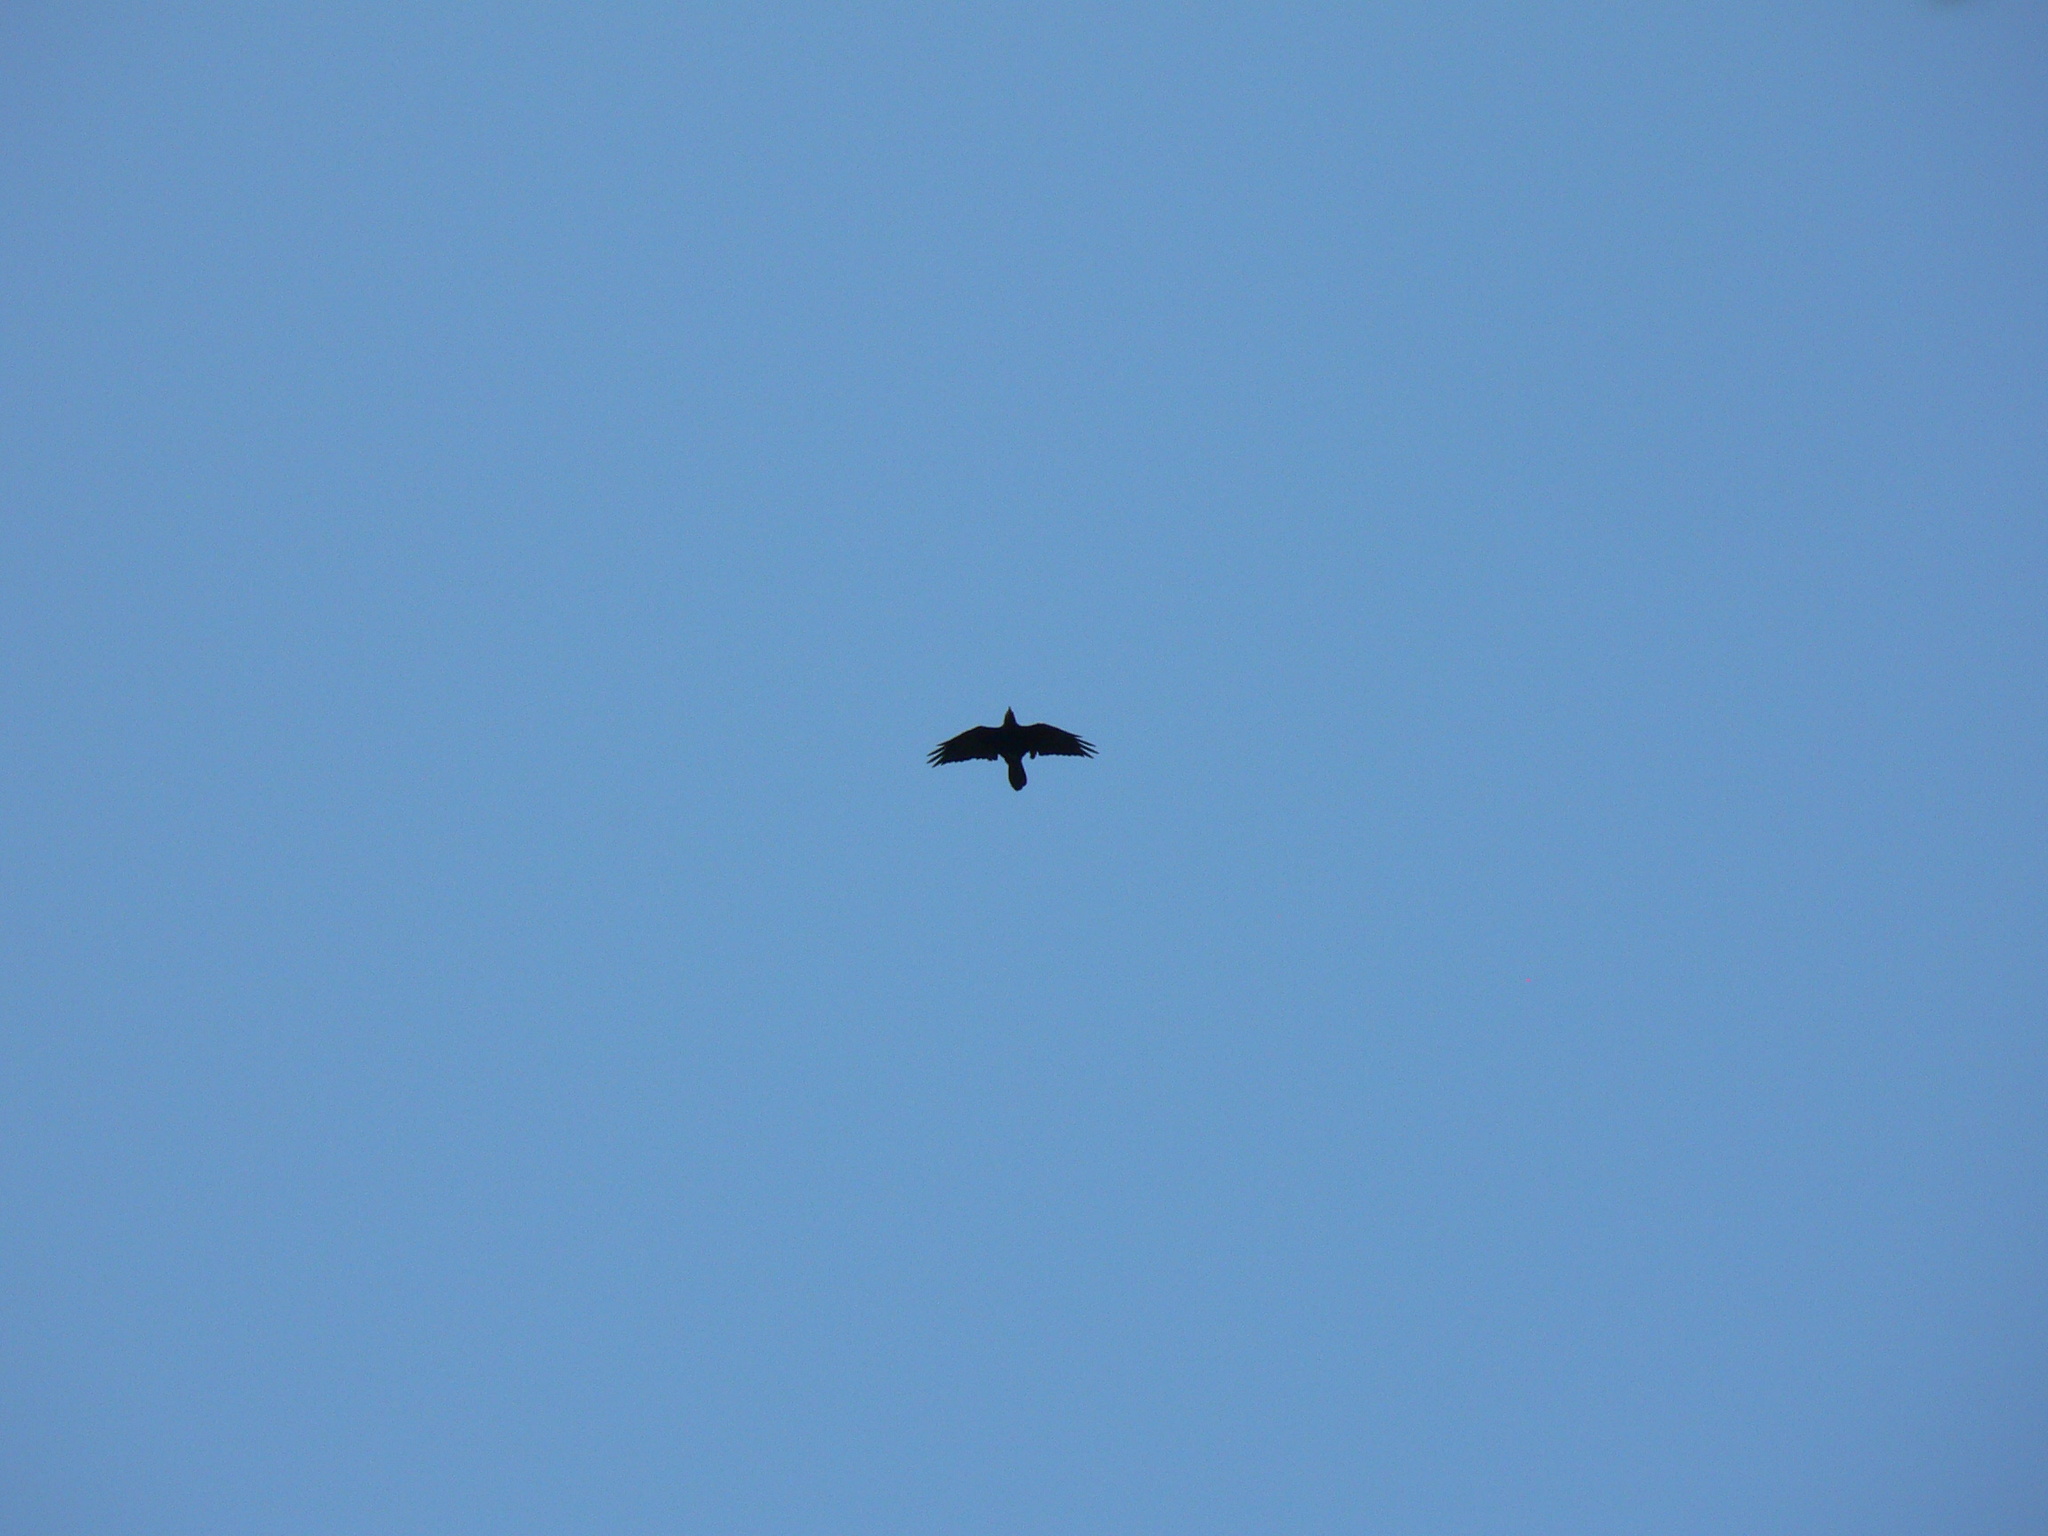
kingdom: Animalia
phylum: Chordata
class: Aves
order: Passeriformes
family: Corvidae
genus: Corvus
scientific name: Corvus corax
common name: Common raven
